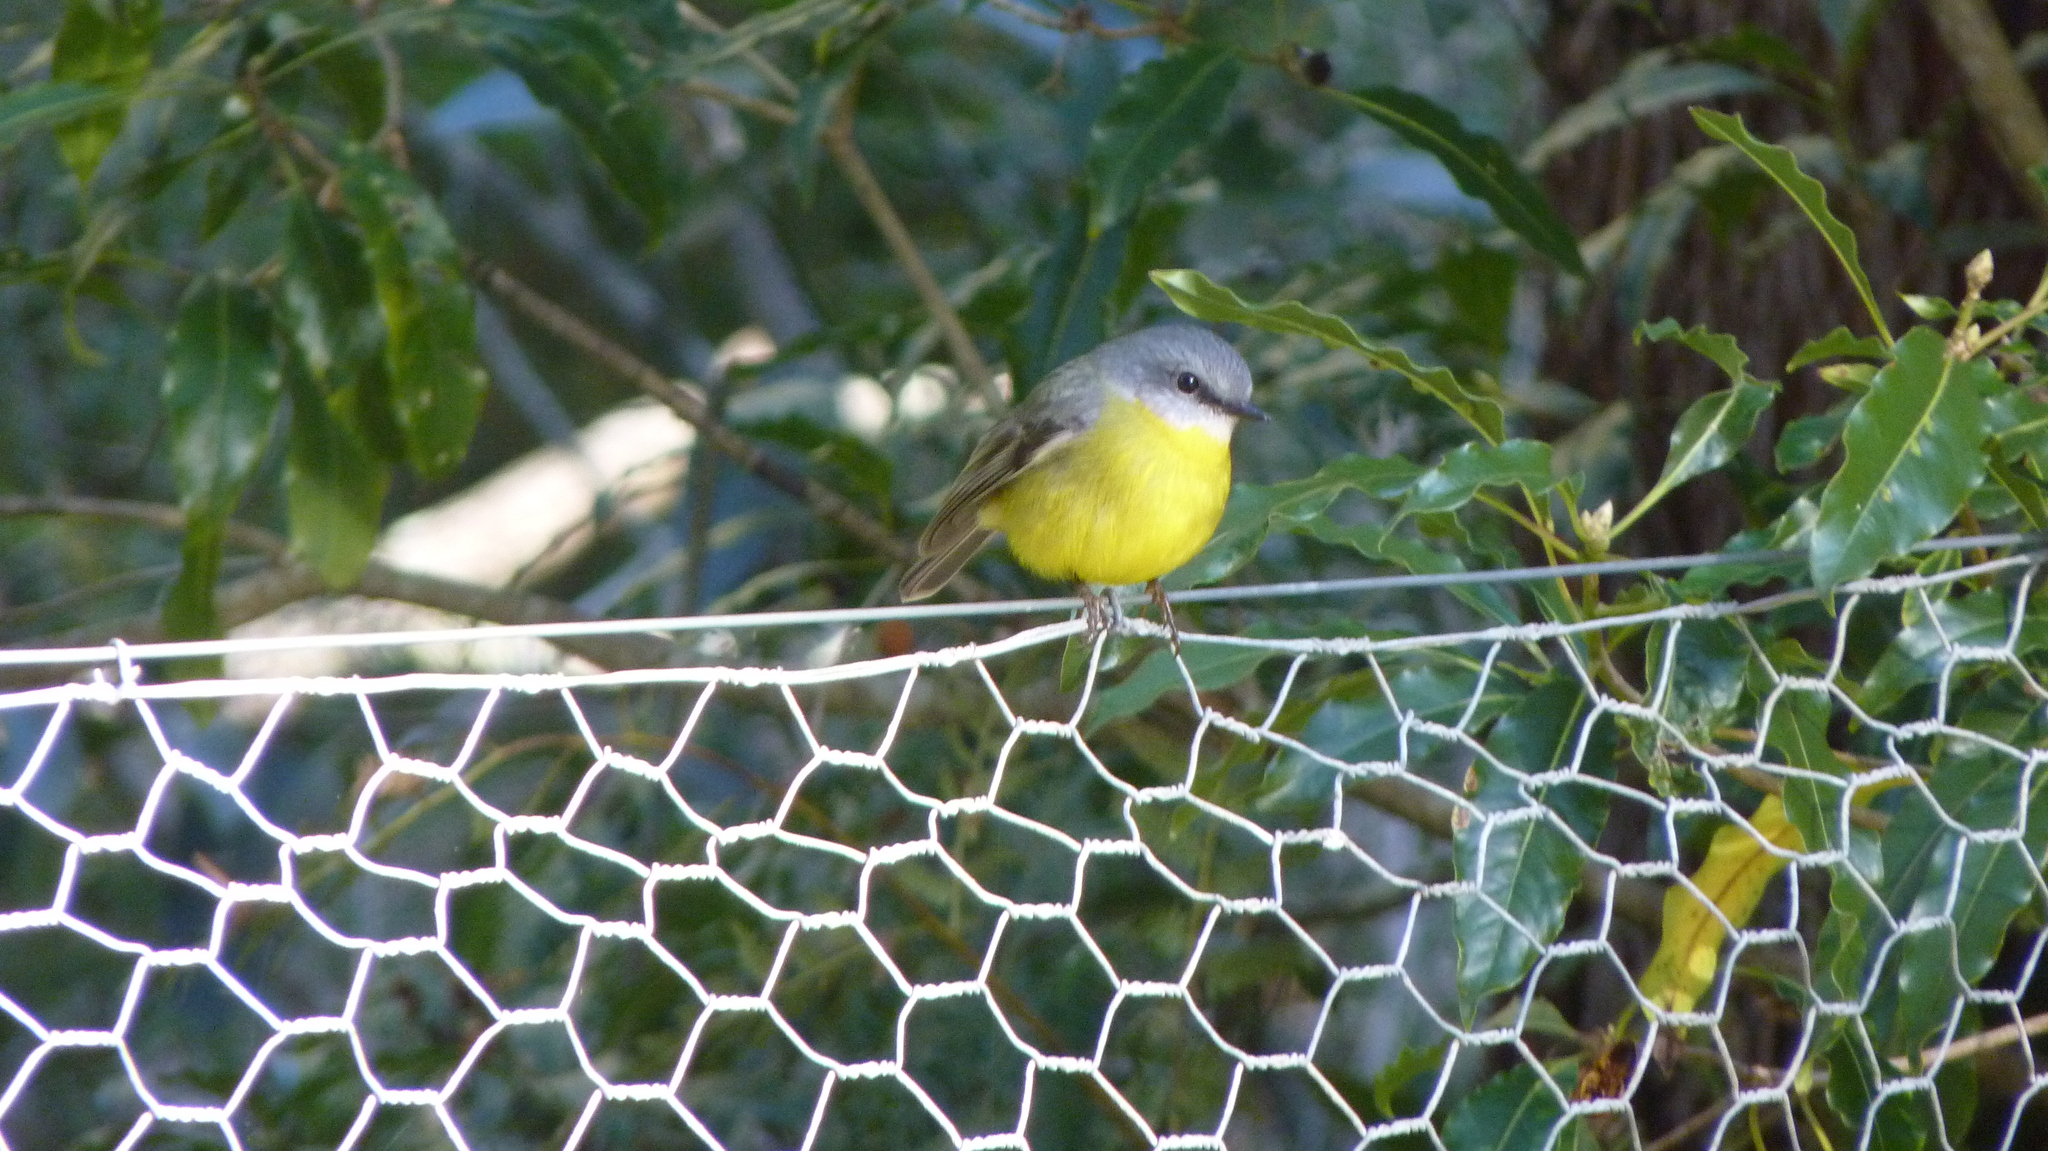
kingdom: Animalia
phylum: Chordata
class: Aves
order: Passeriformes
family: Petroicidae
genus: Eopsaltria
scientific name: Eopsaltria australis
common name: Eastern yellow robin
